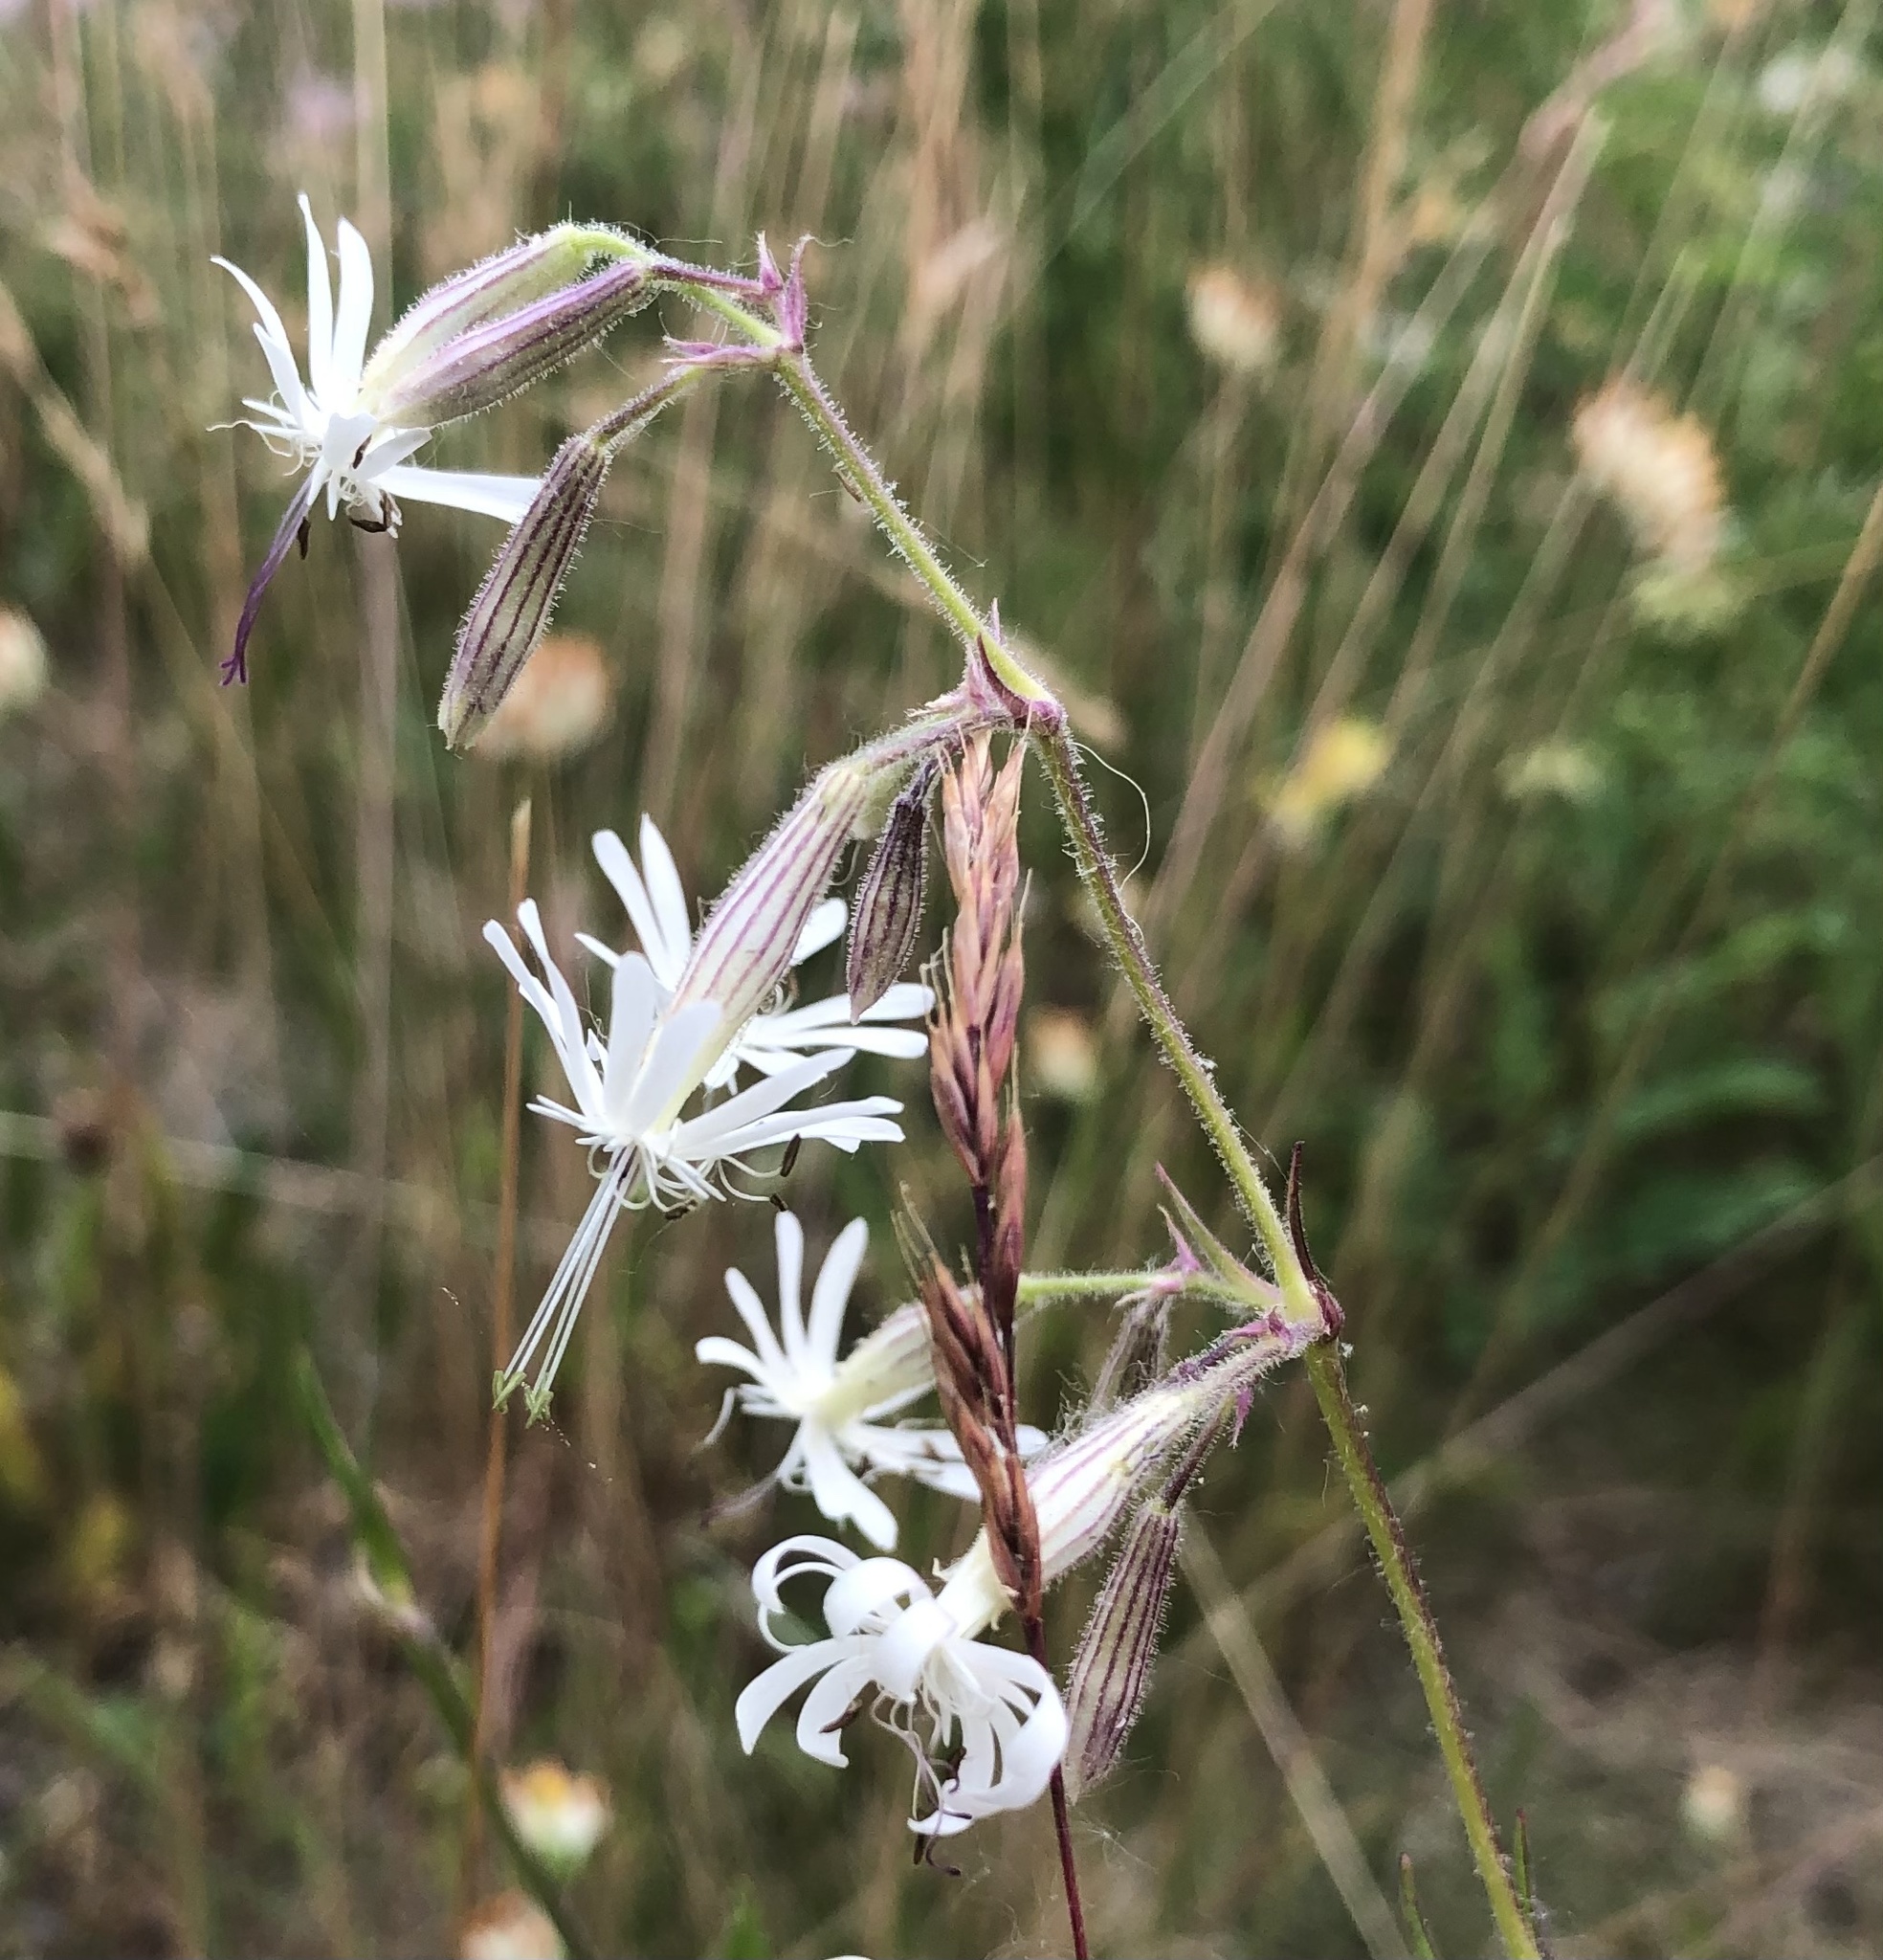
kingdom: Plantae
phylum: Tracheophyta
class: Magnoliopsida
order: Caryophyllales
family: Caryophyllaceae
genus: Silene
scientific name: Silene nutans
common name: Nottingham catchfly
